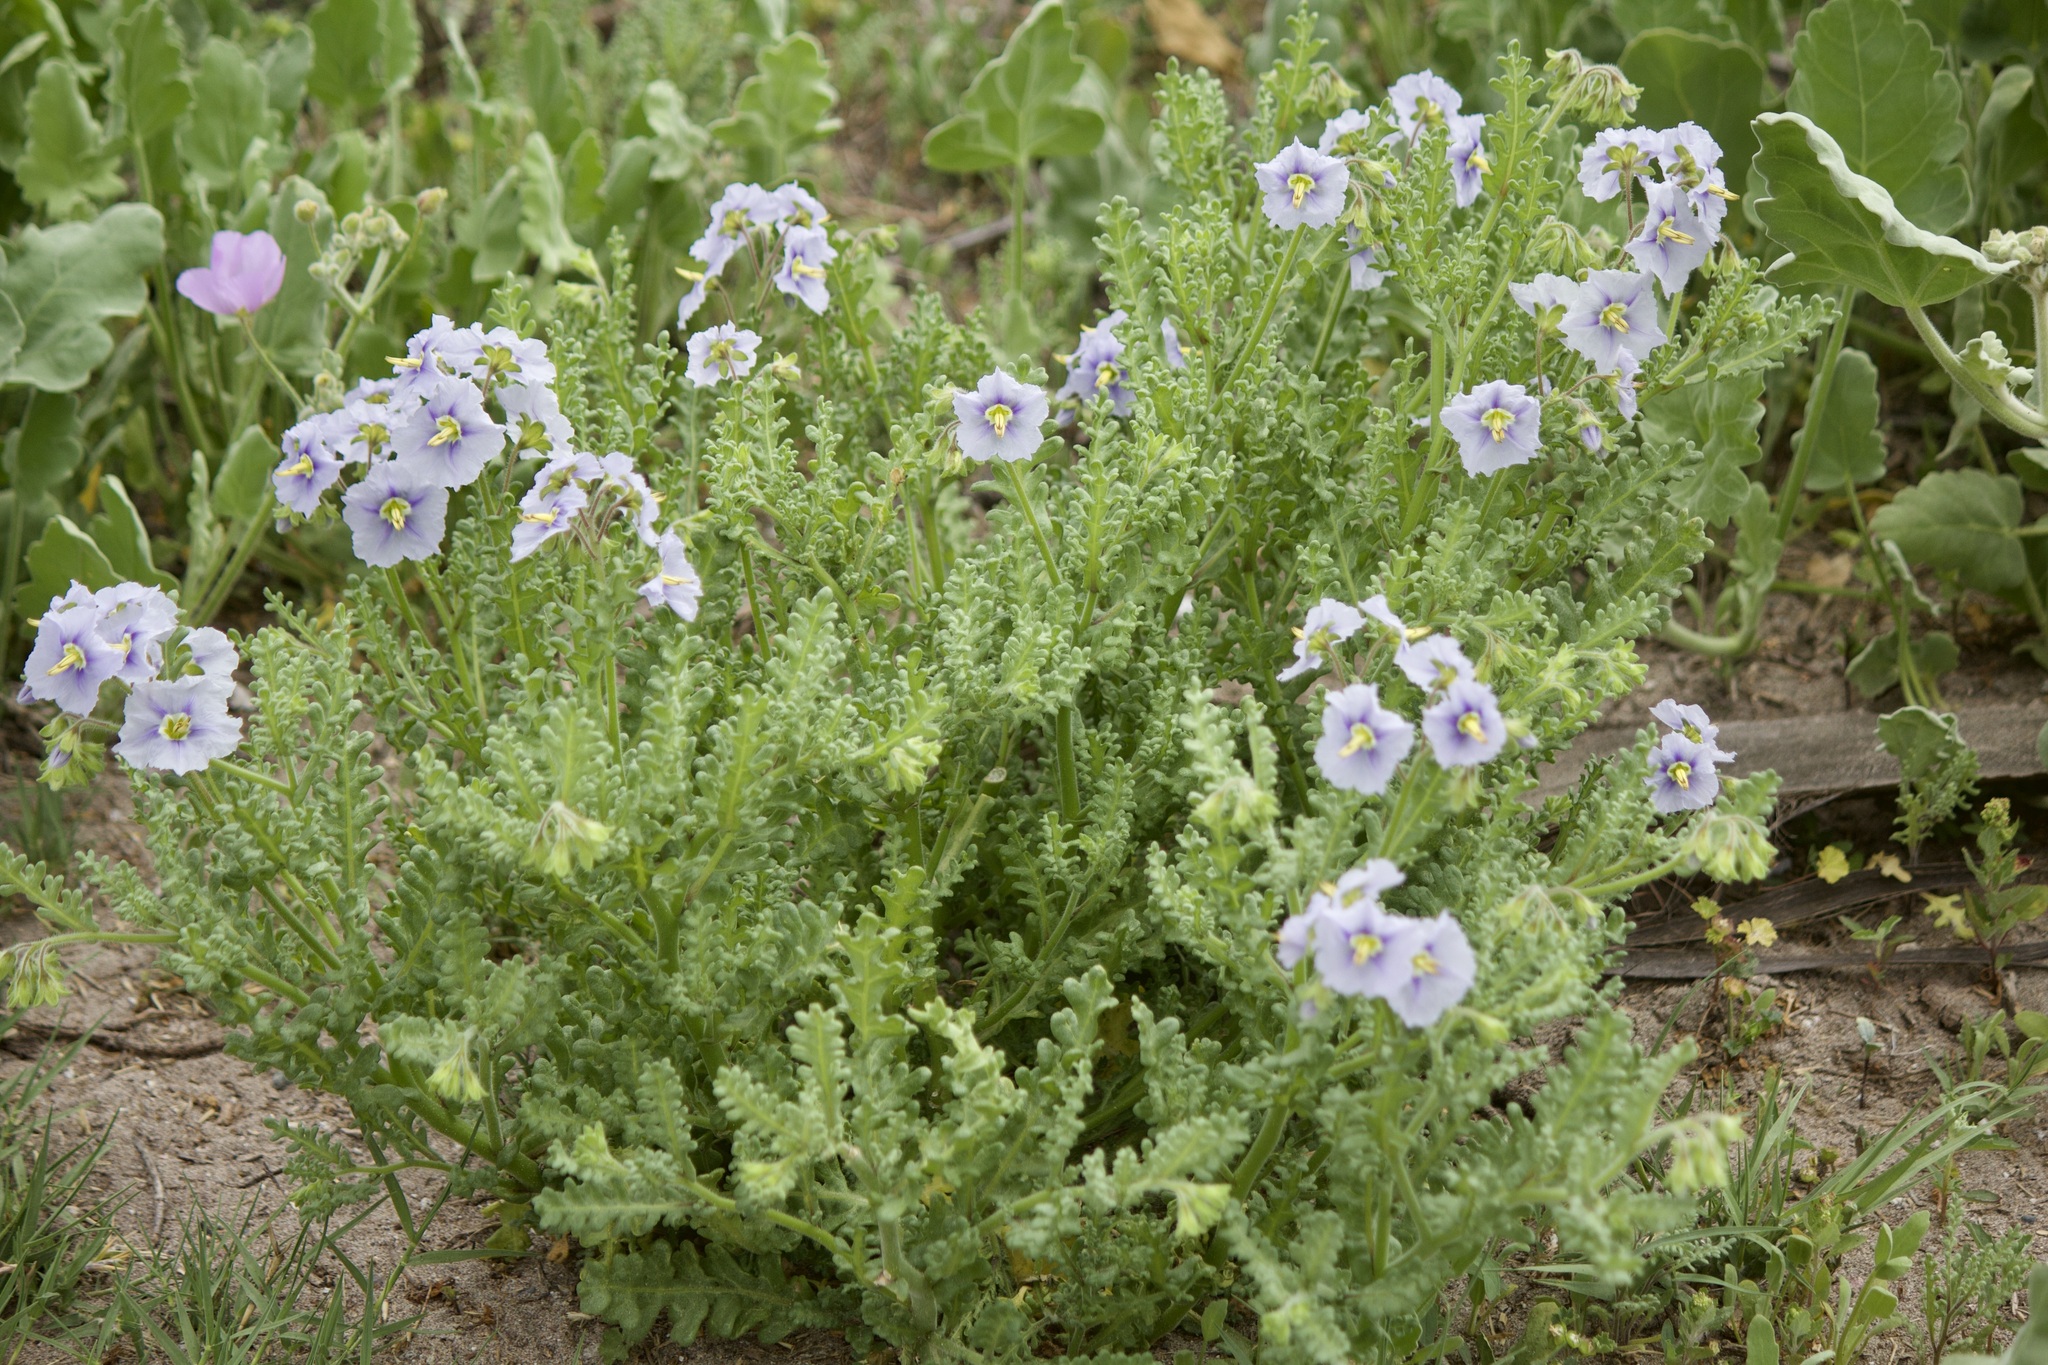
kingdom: Plantae
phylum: Tracheophyta
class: Magnoliopsida
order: Solanales
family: Solanaceae
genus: Solanum
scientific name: Solanum trinominum
